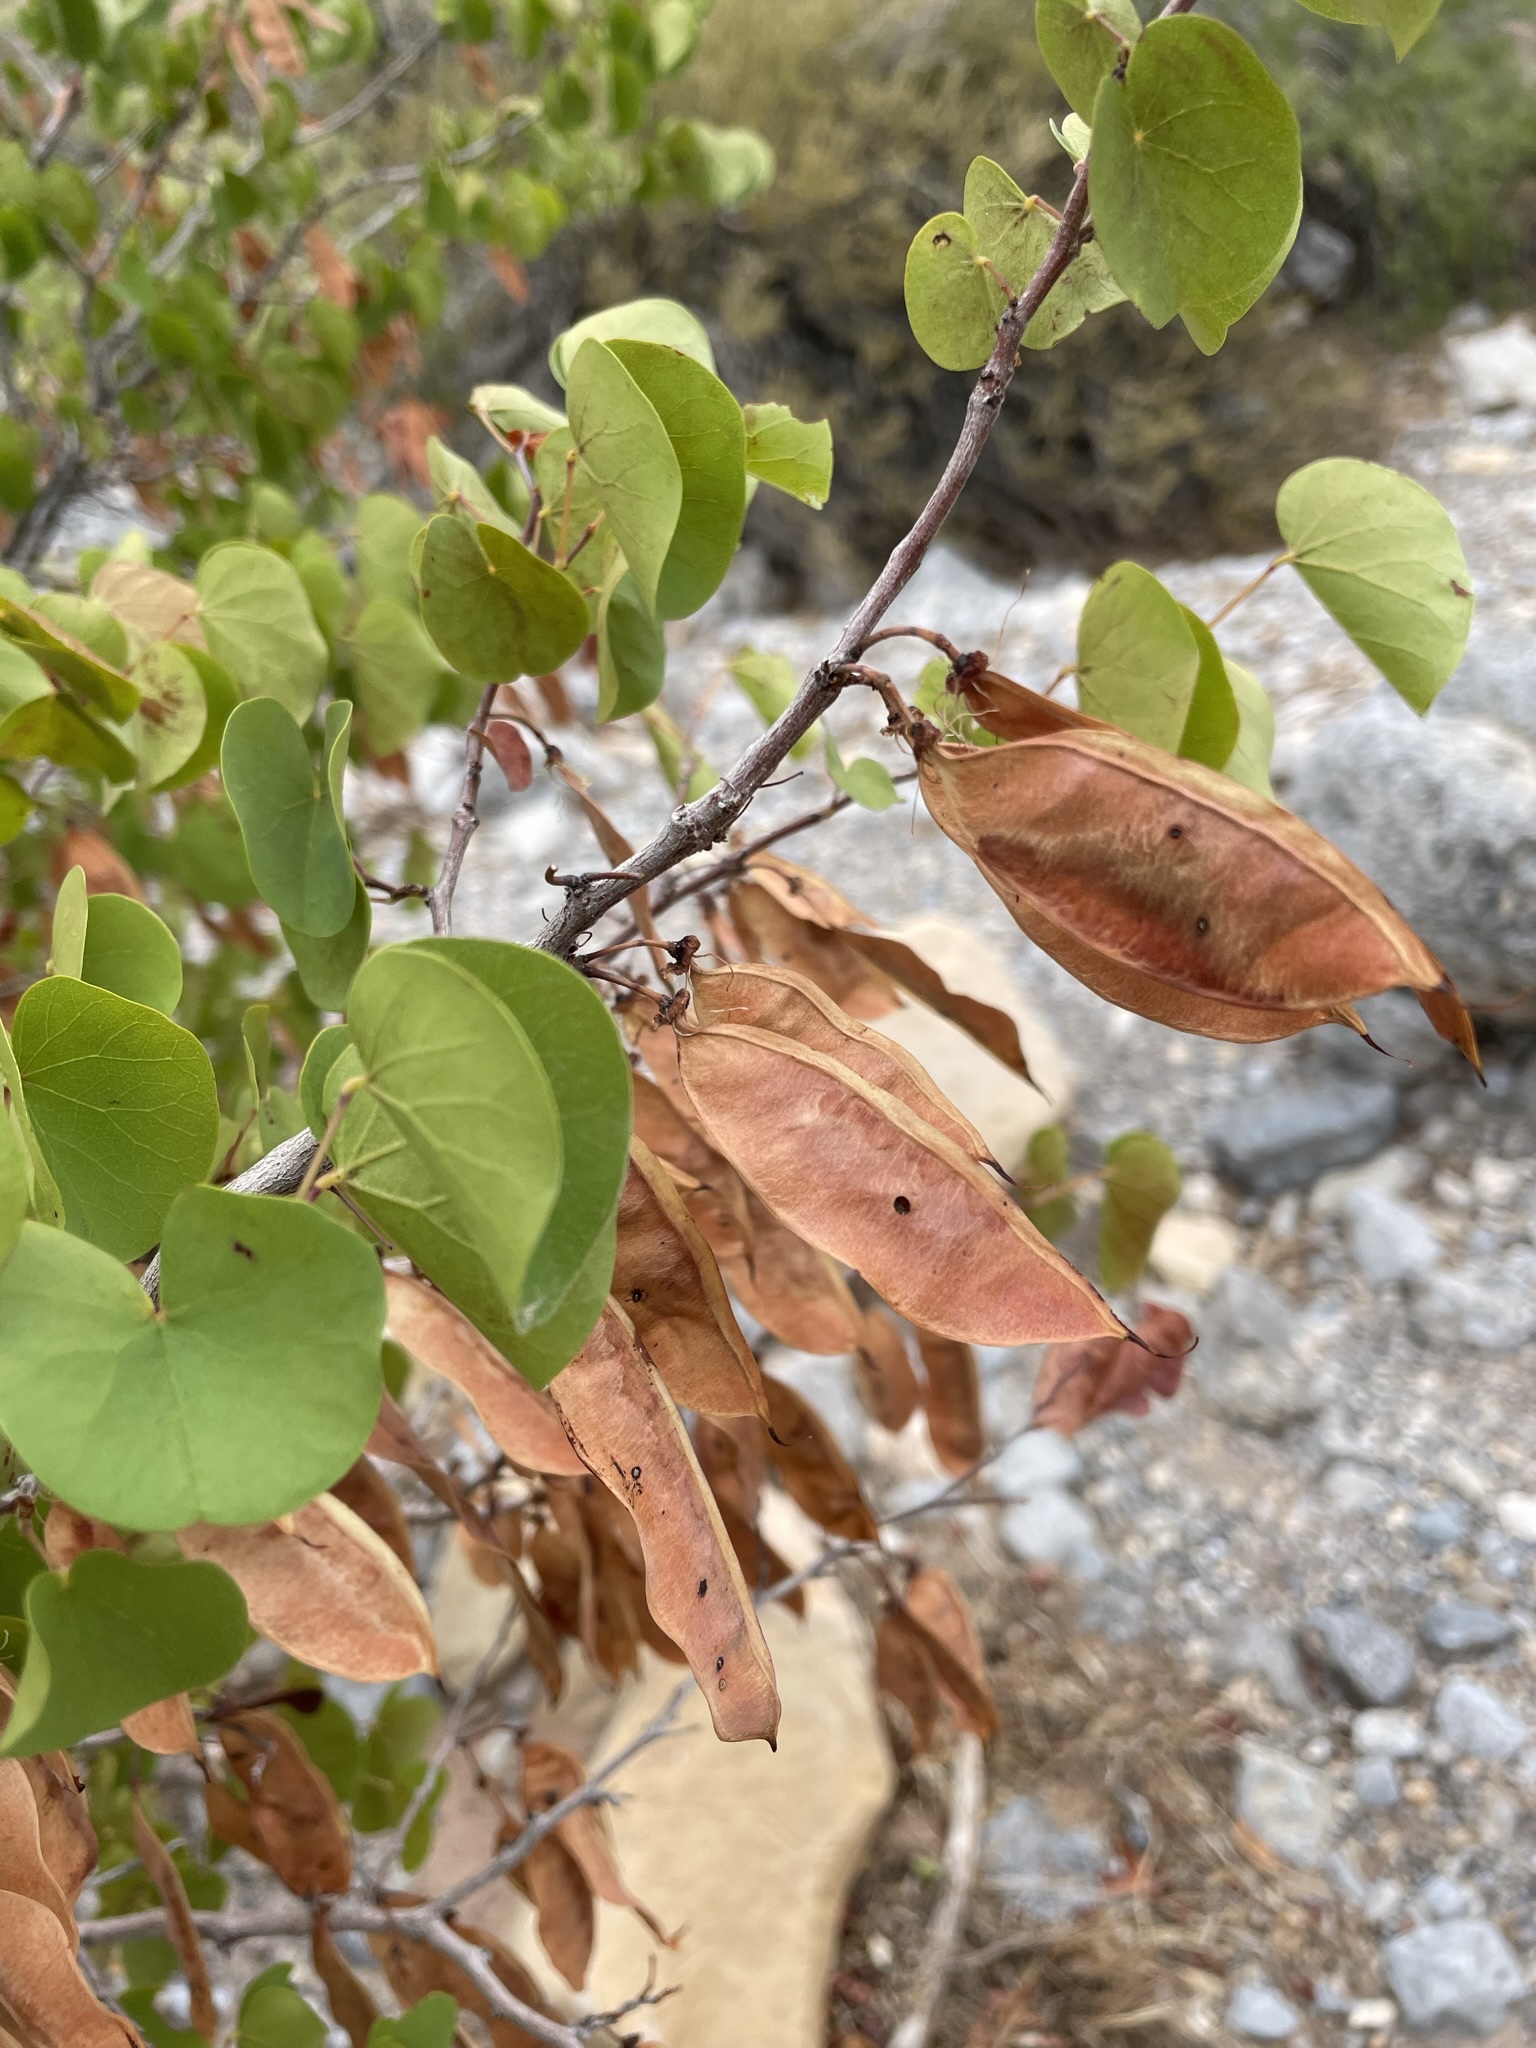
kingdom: Plantae
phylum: Tracheophyta
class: Magnoliopsida
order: Fabales
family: Fabaceae
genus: Cercis
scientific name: Cercis occidentalis
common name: California redbud
